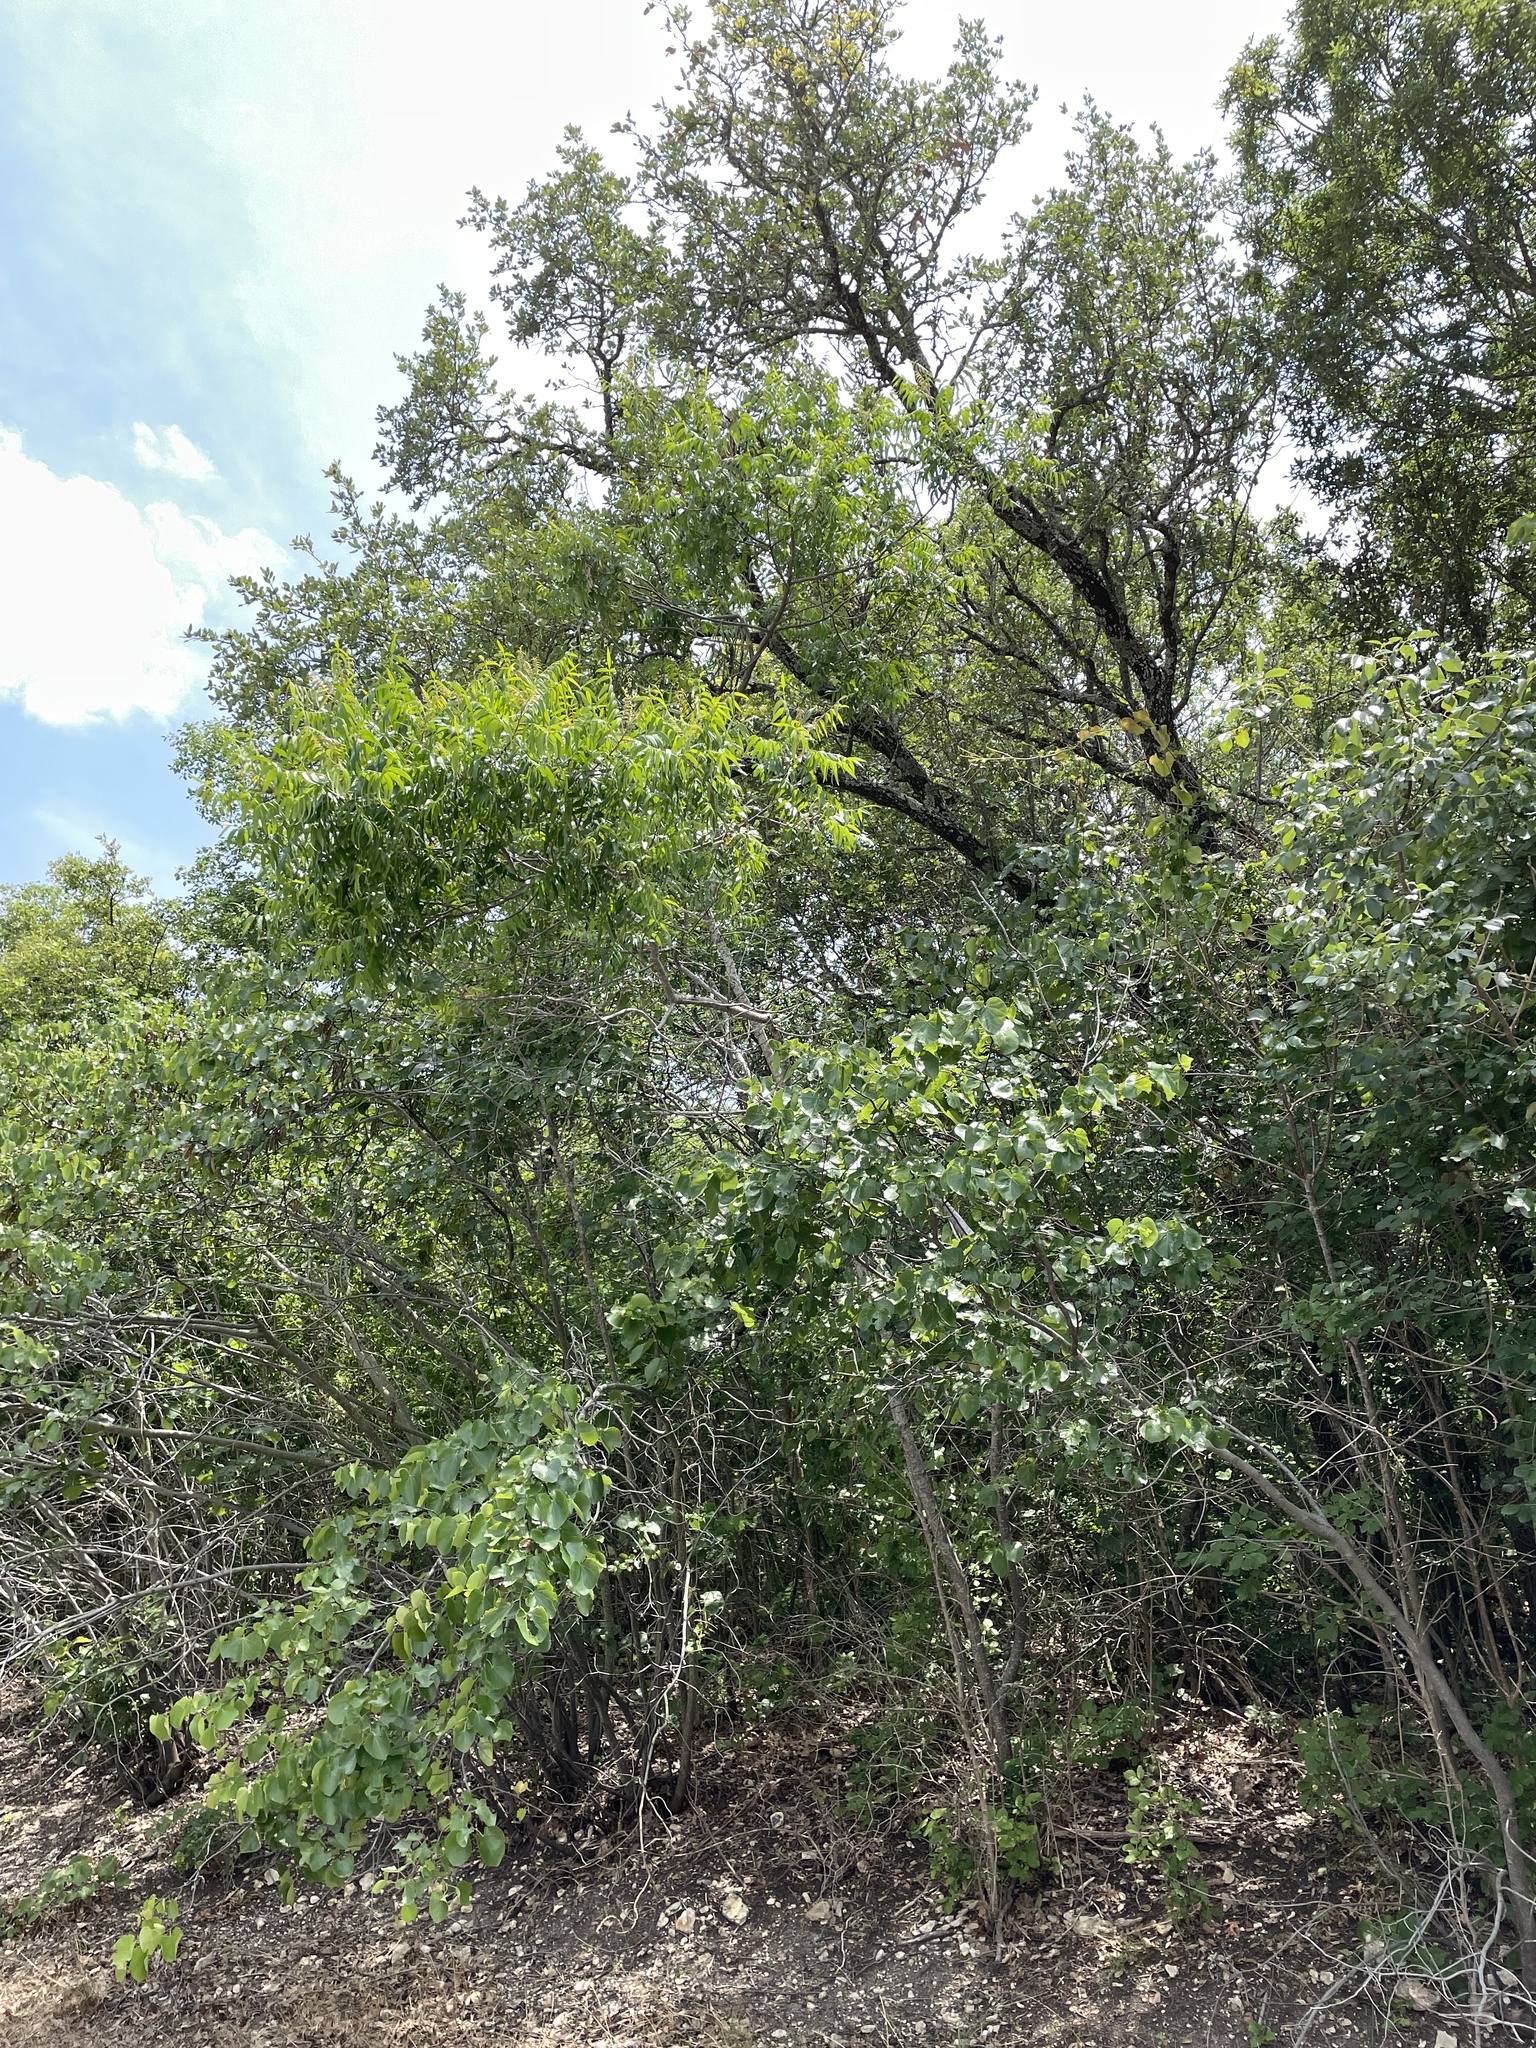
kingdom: Plantae
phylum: Tracheophyta
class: Magnoliopsida
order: Sapindales
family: Anacardiaceae
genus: Rhus
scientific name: Rhus lanceolata
